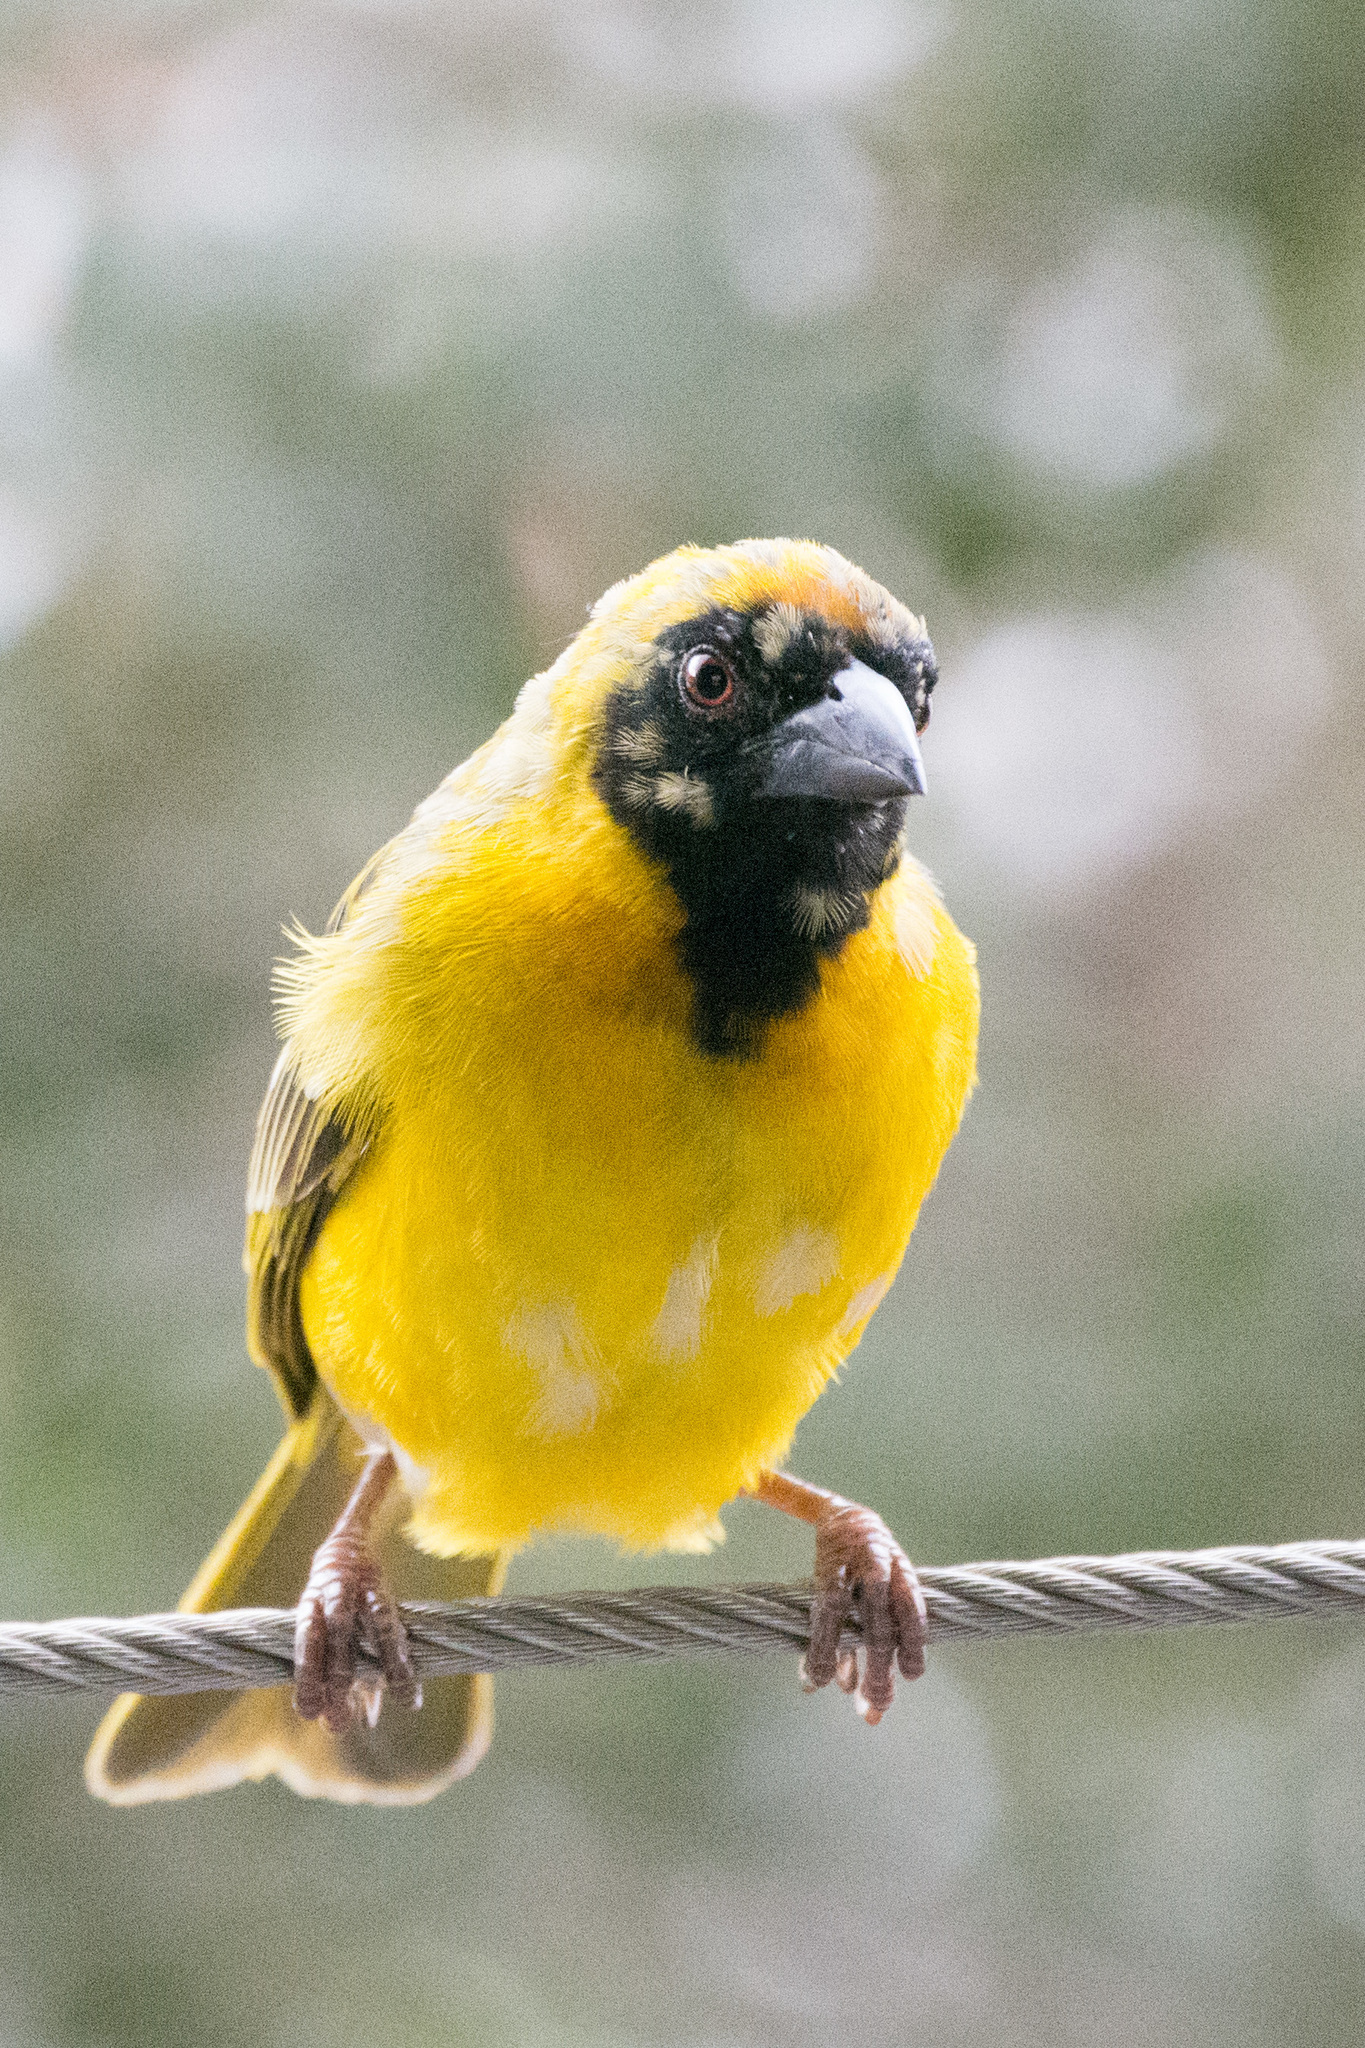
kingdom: Animalia
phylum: Chordata
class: Aves
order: Passeriformes
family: Ploceidae
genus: Ploceus
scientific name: Ploceus velatus
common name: Southern masked weaver
